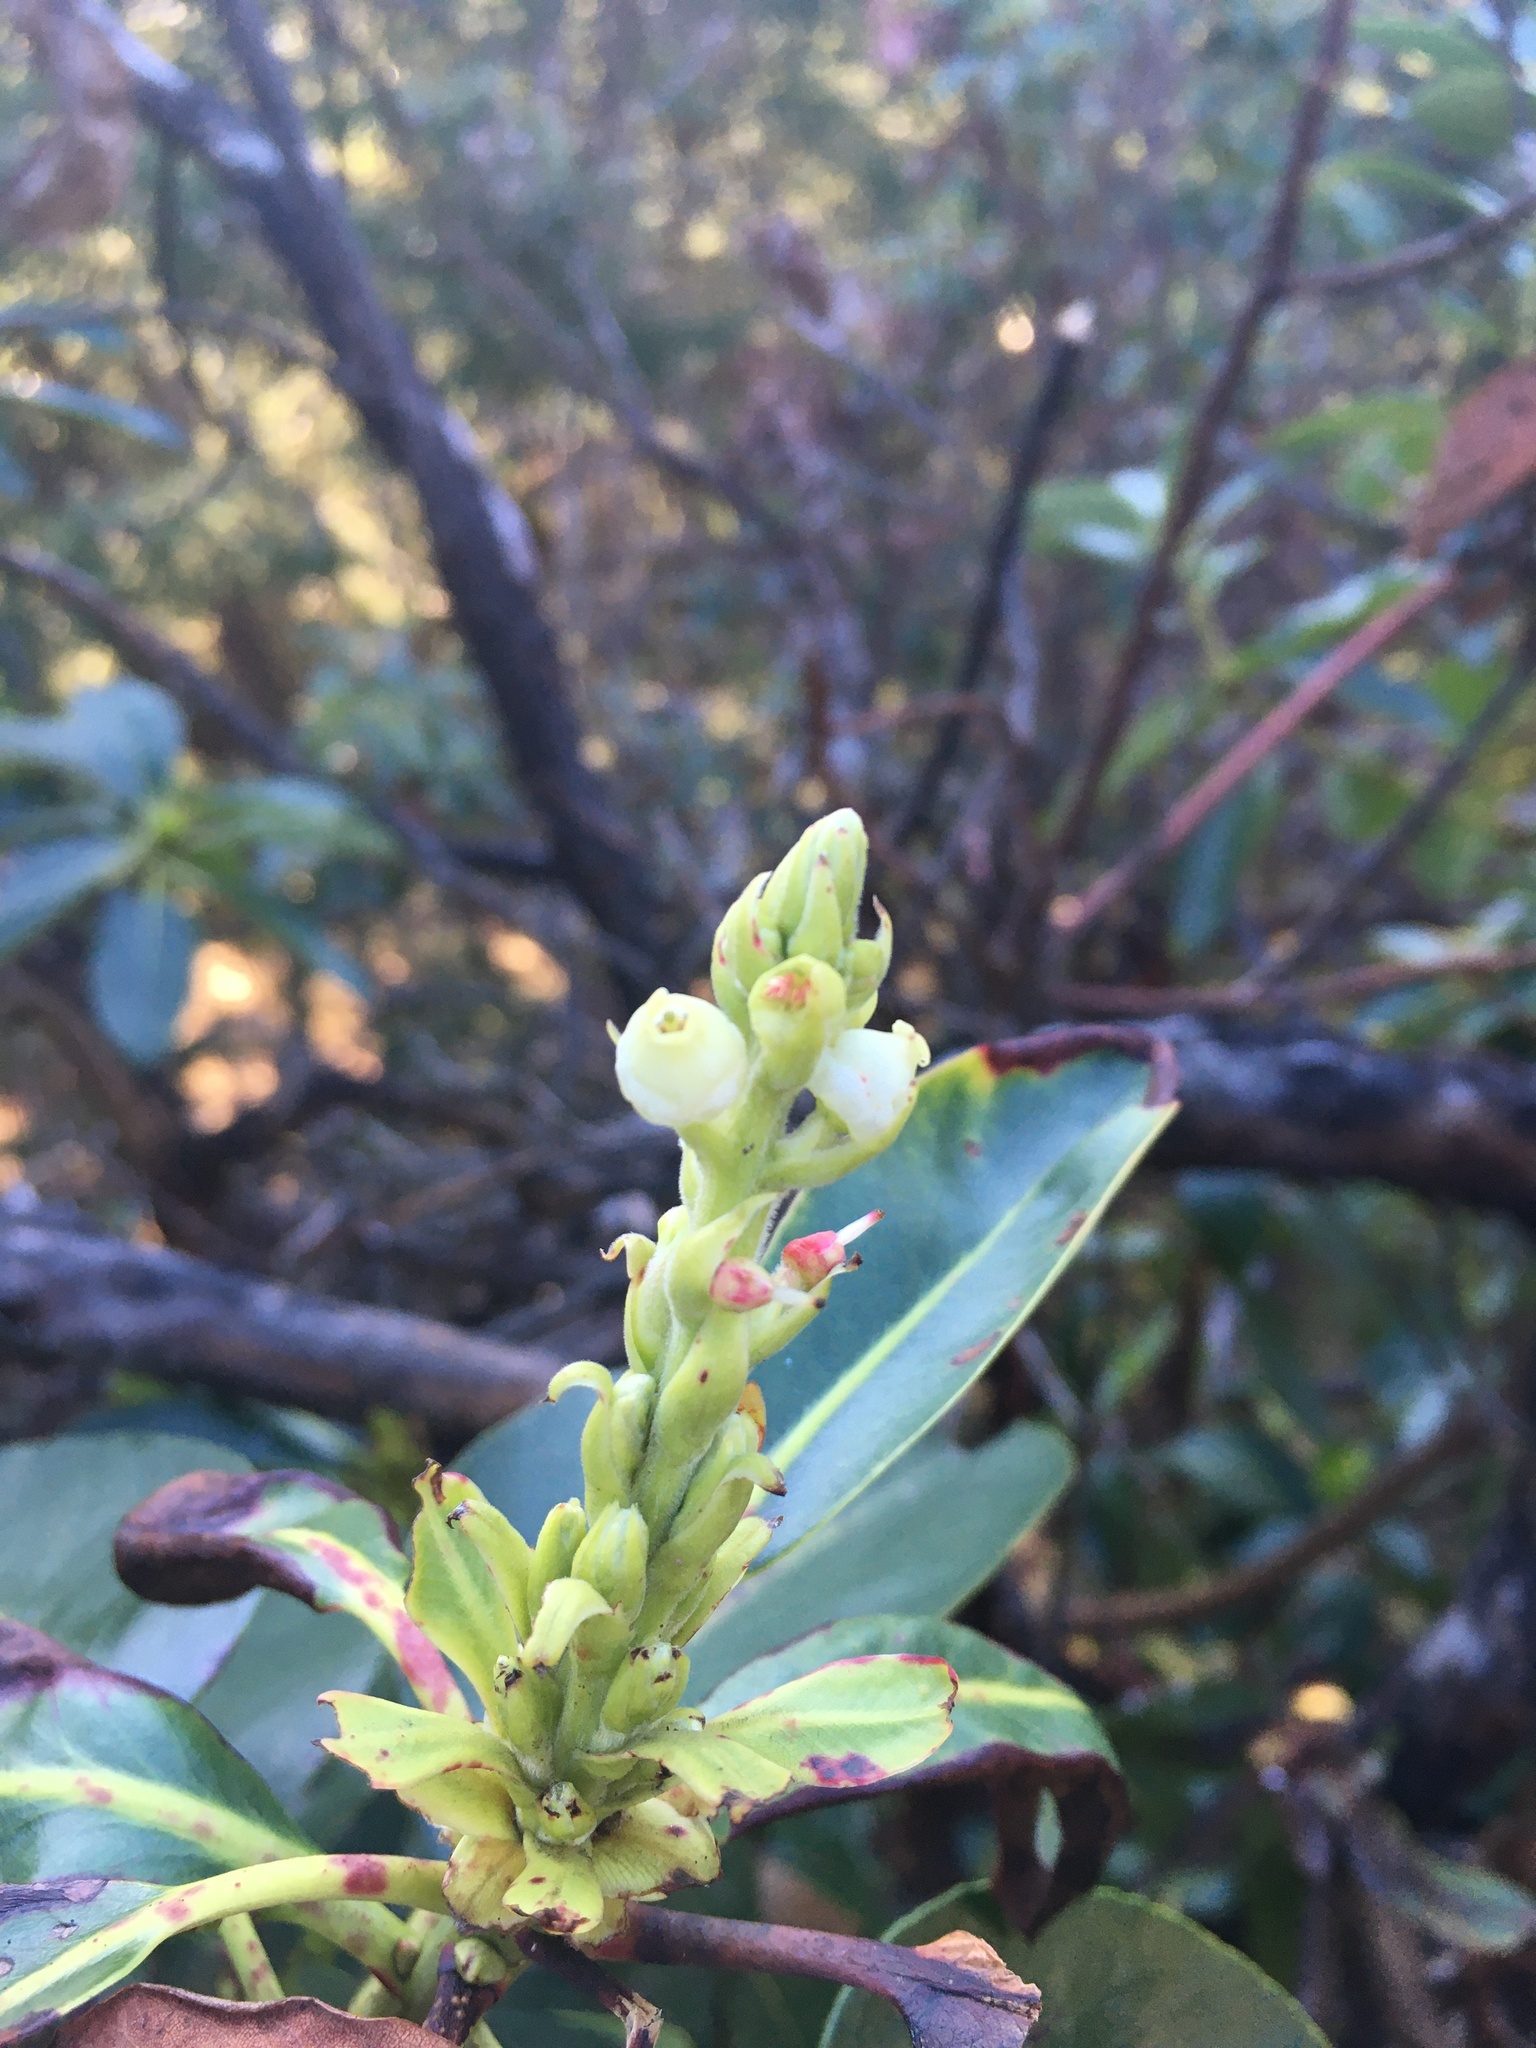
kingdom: Plantae
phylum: Tracheophyta
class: Magnoliopsida
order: Ericales
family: Ericaceae
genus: Arbutus
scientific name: Arbutus menziesii
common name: Pacific madrone
